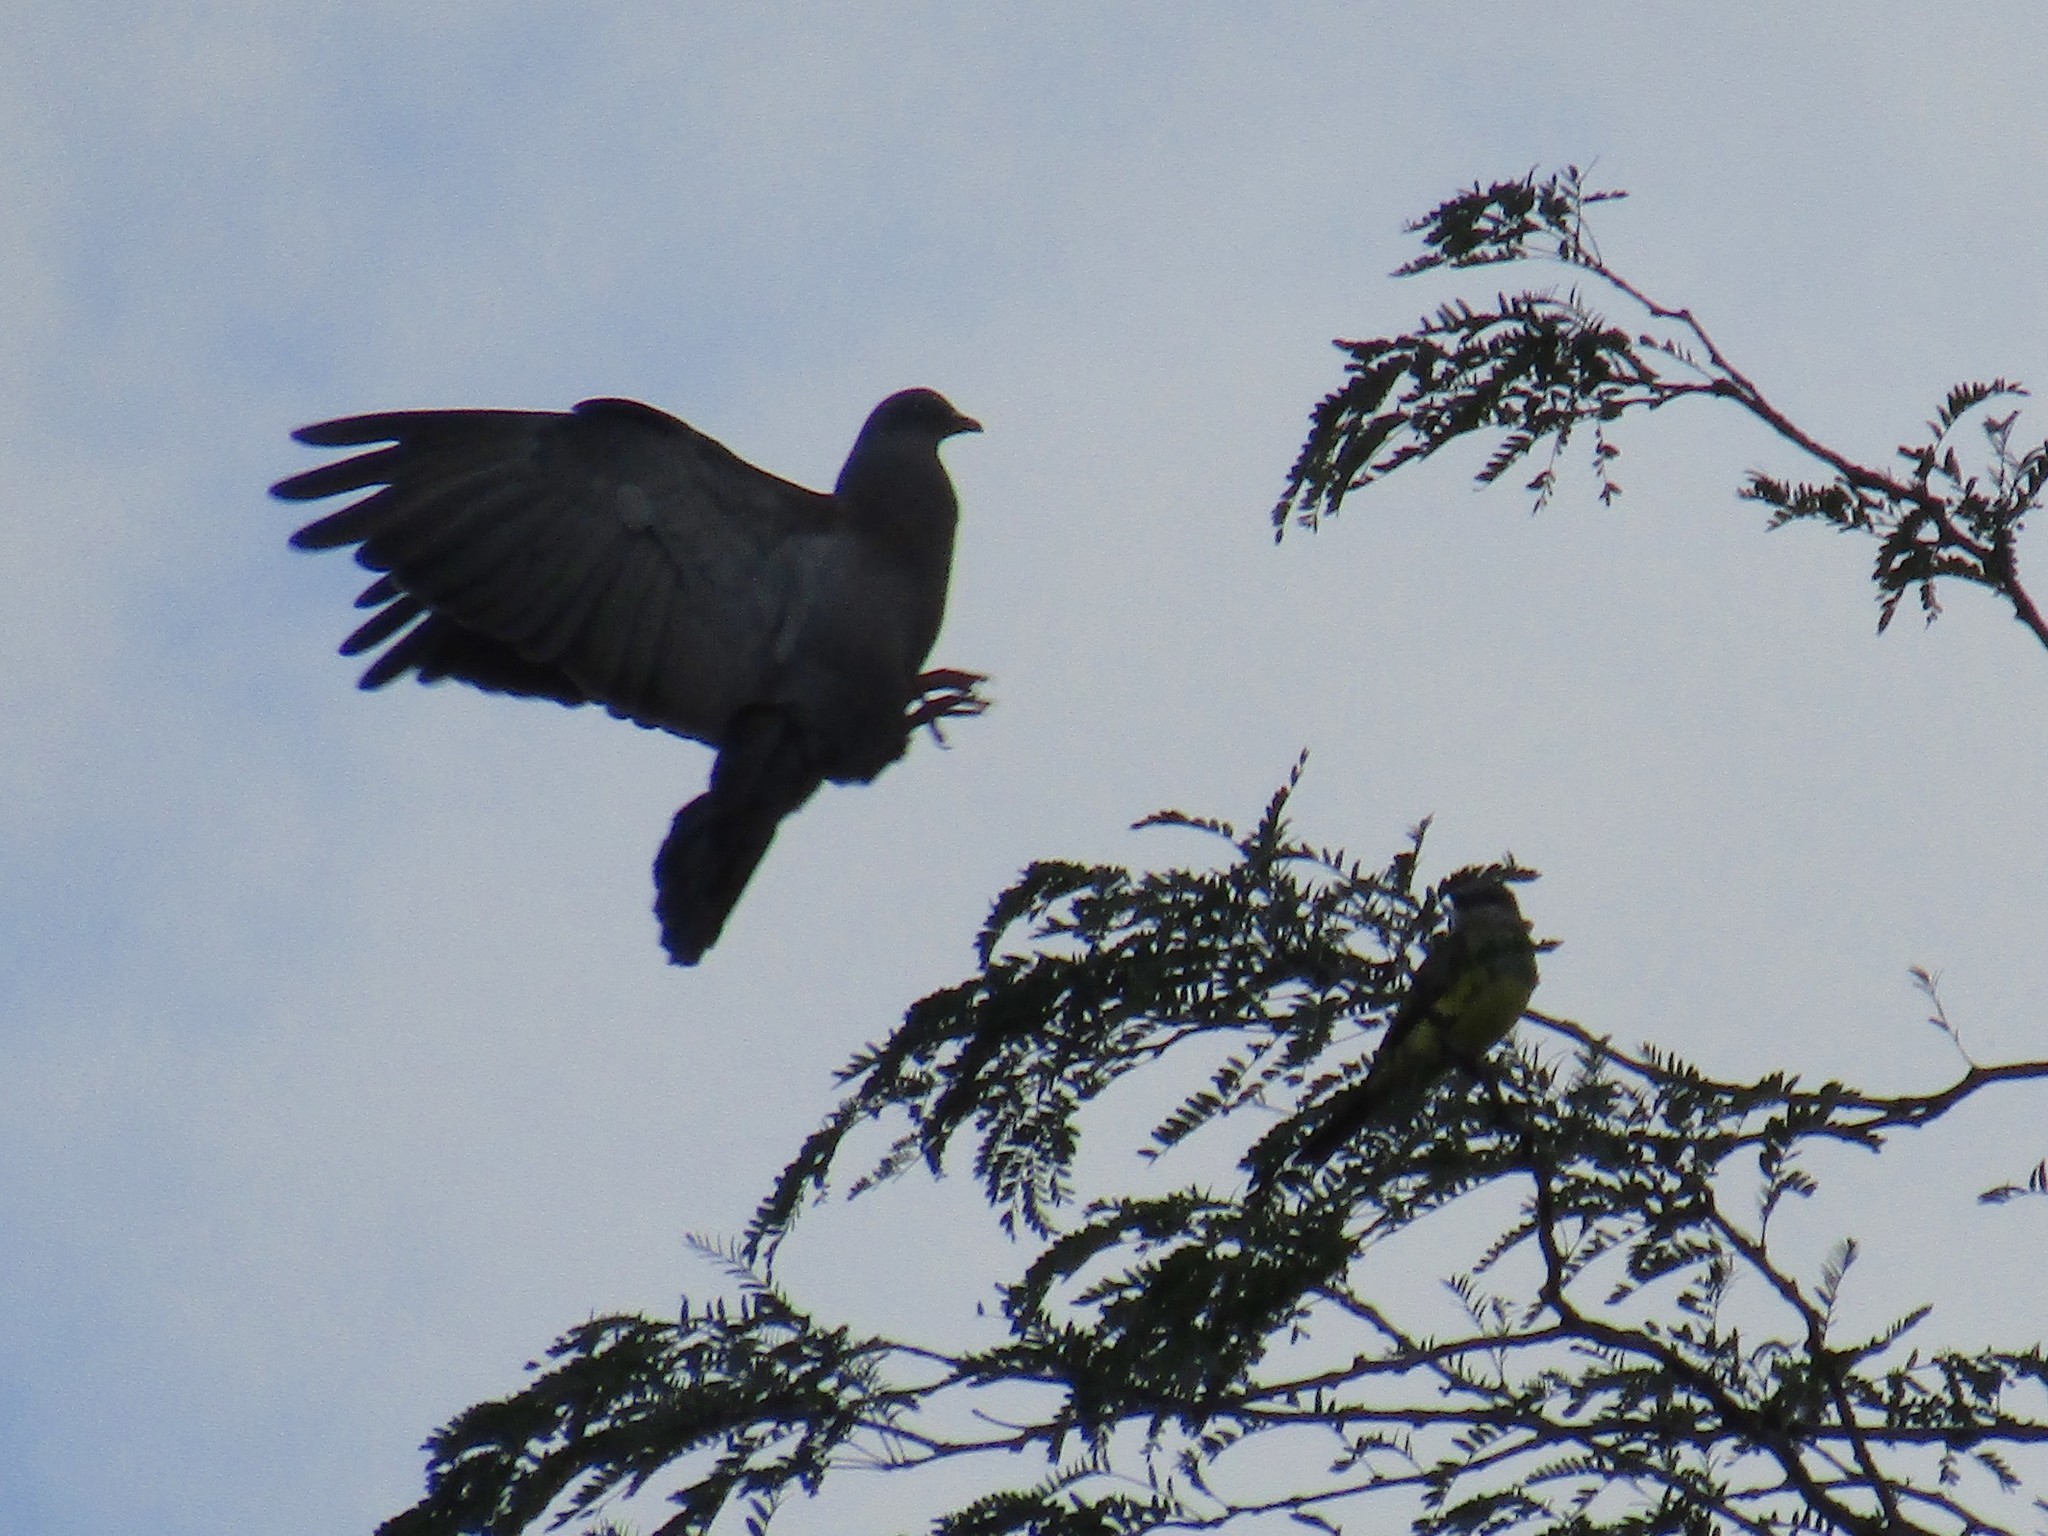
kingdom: Animalia
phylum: Chordata
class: Aves
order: Passeriformes
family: Tyrannidae
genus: Tyrannus
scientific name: Tyrannus melancholicus
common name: Tropical kingbird
